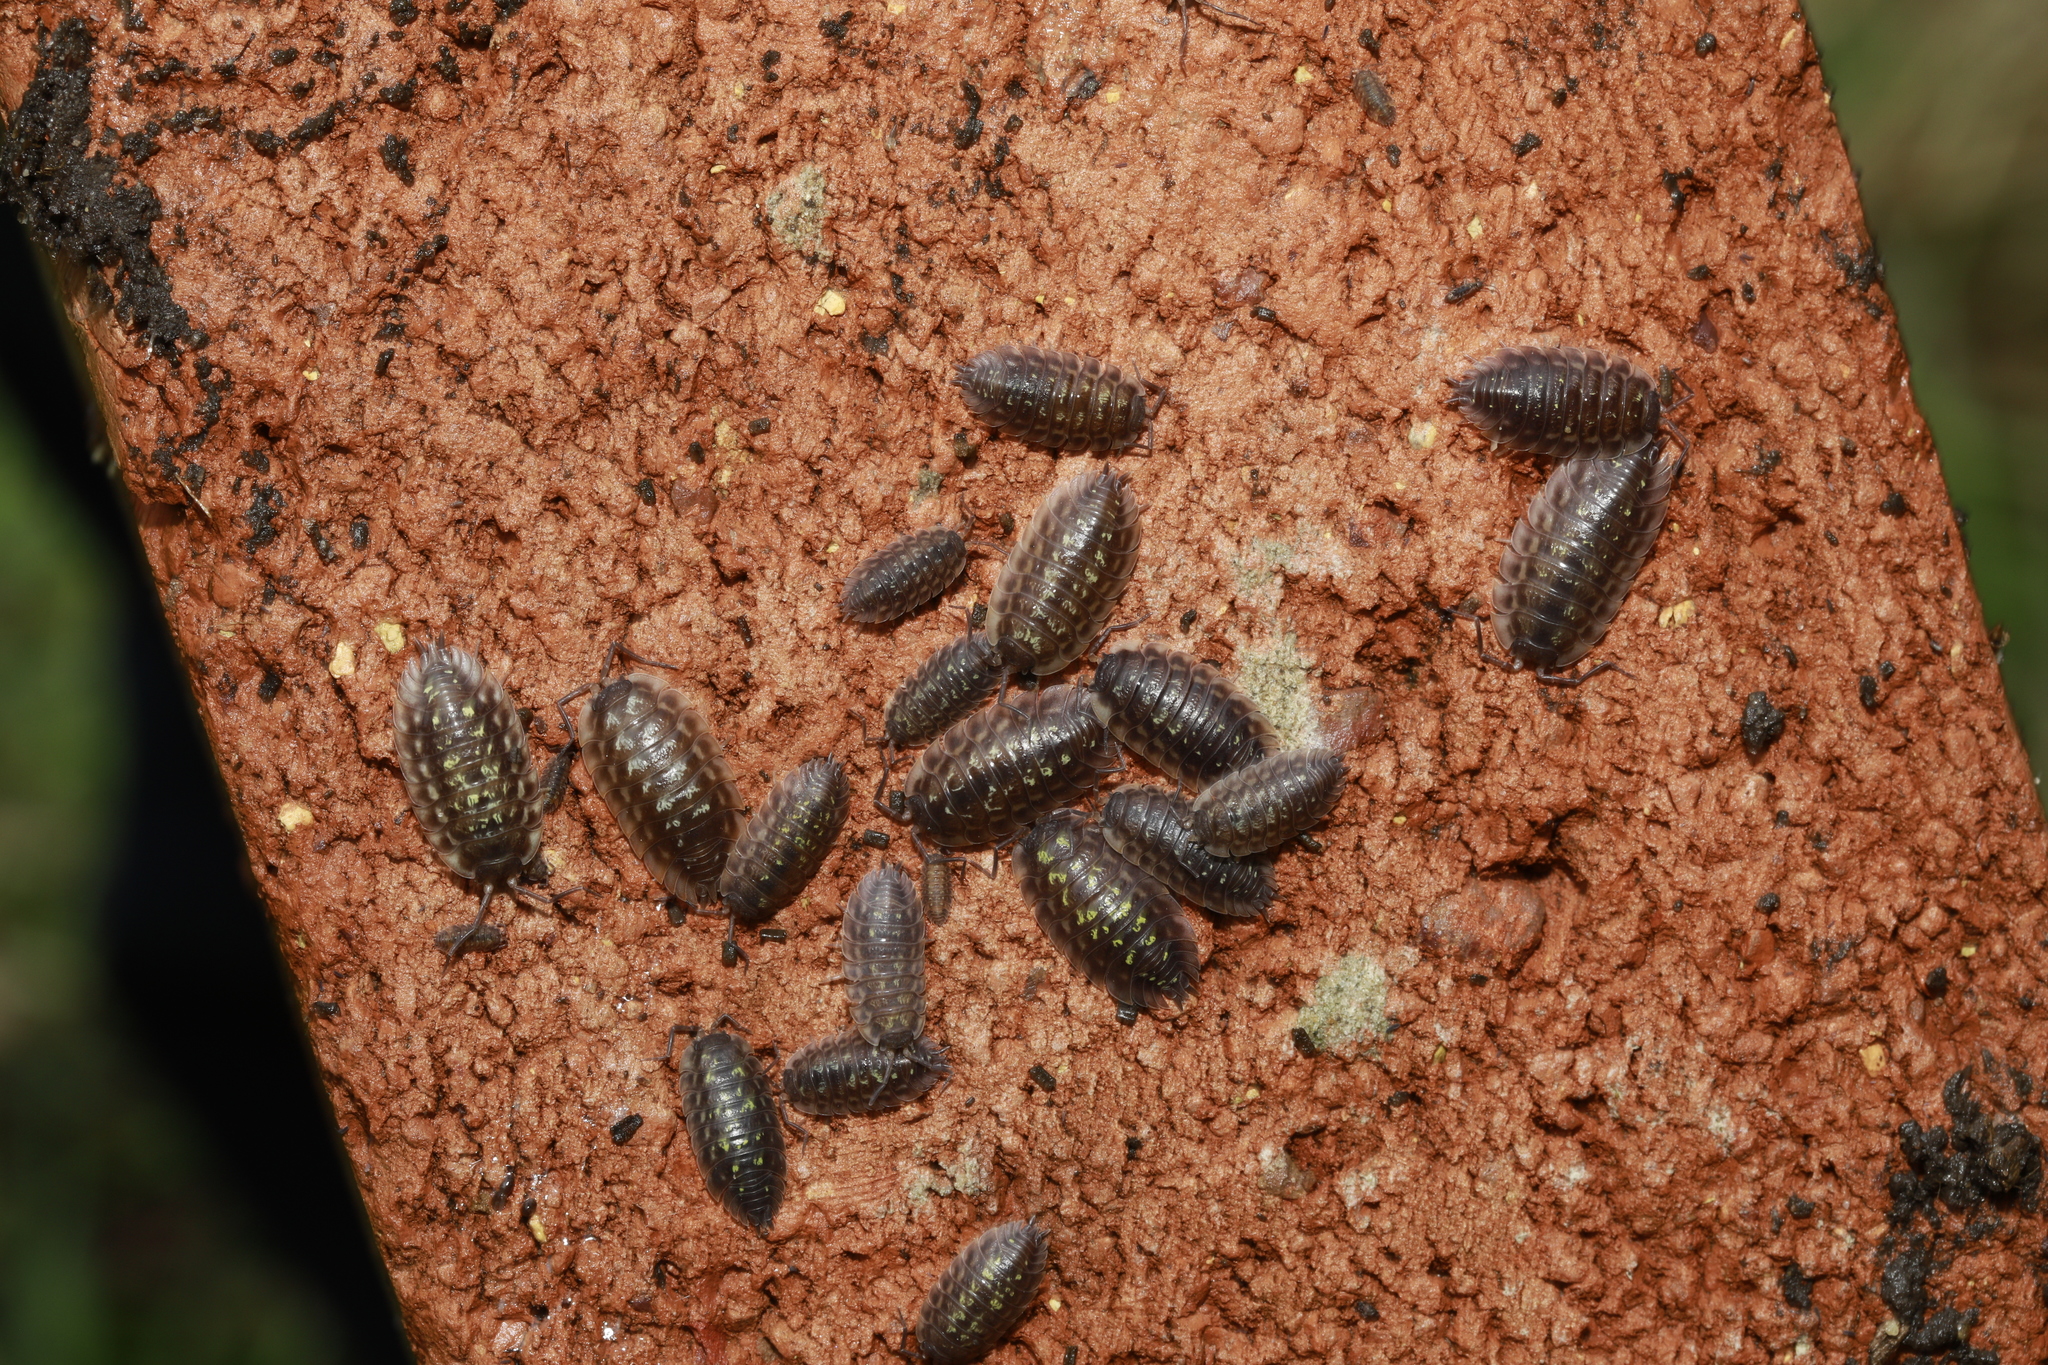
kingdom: Animalia
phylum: Arthropoda
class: Malacostraca
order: Isopoda
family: Oniscidae
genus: Oniscus
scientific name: Oniscus asellus
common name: Common shiny woodlouse
